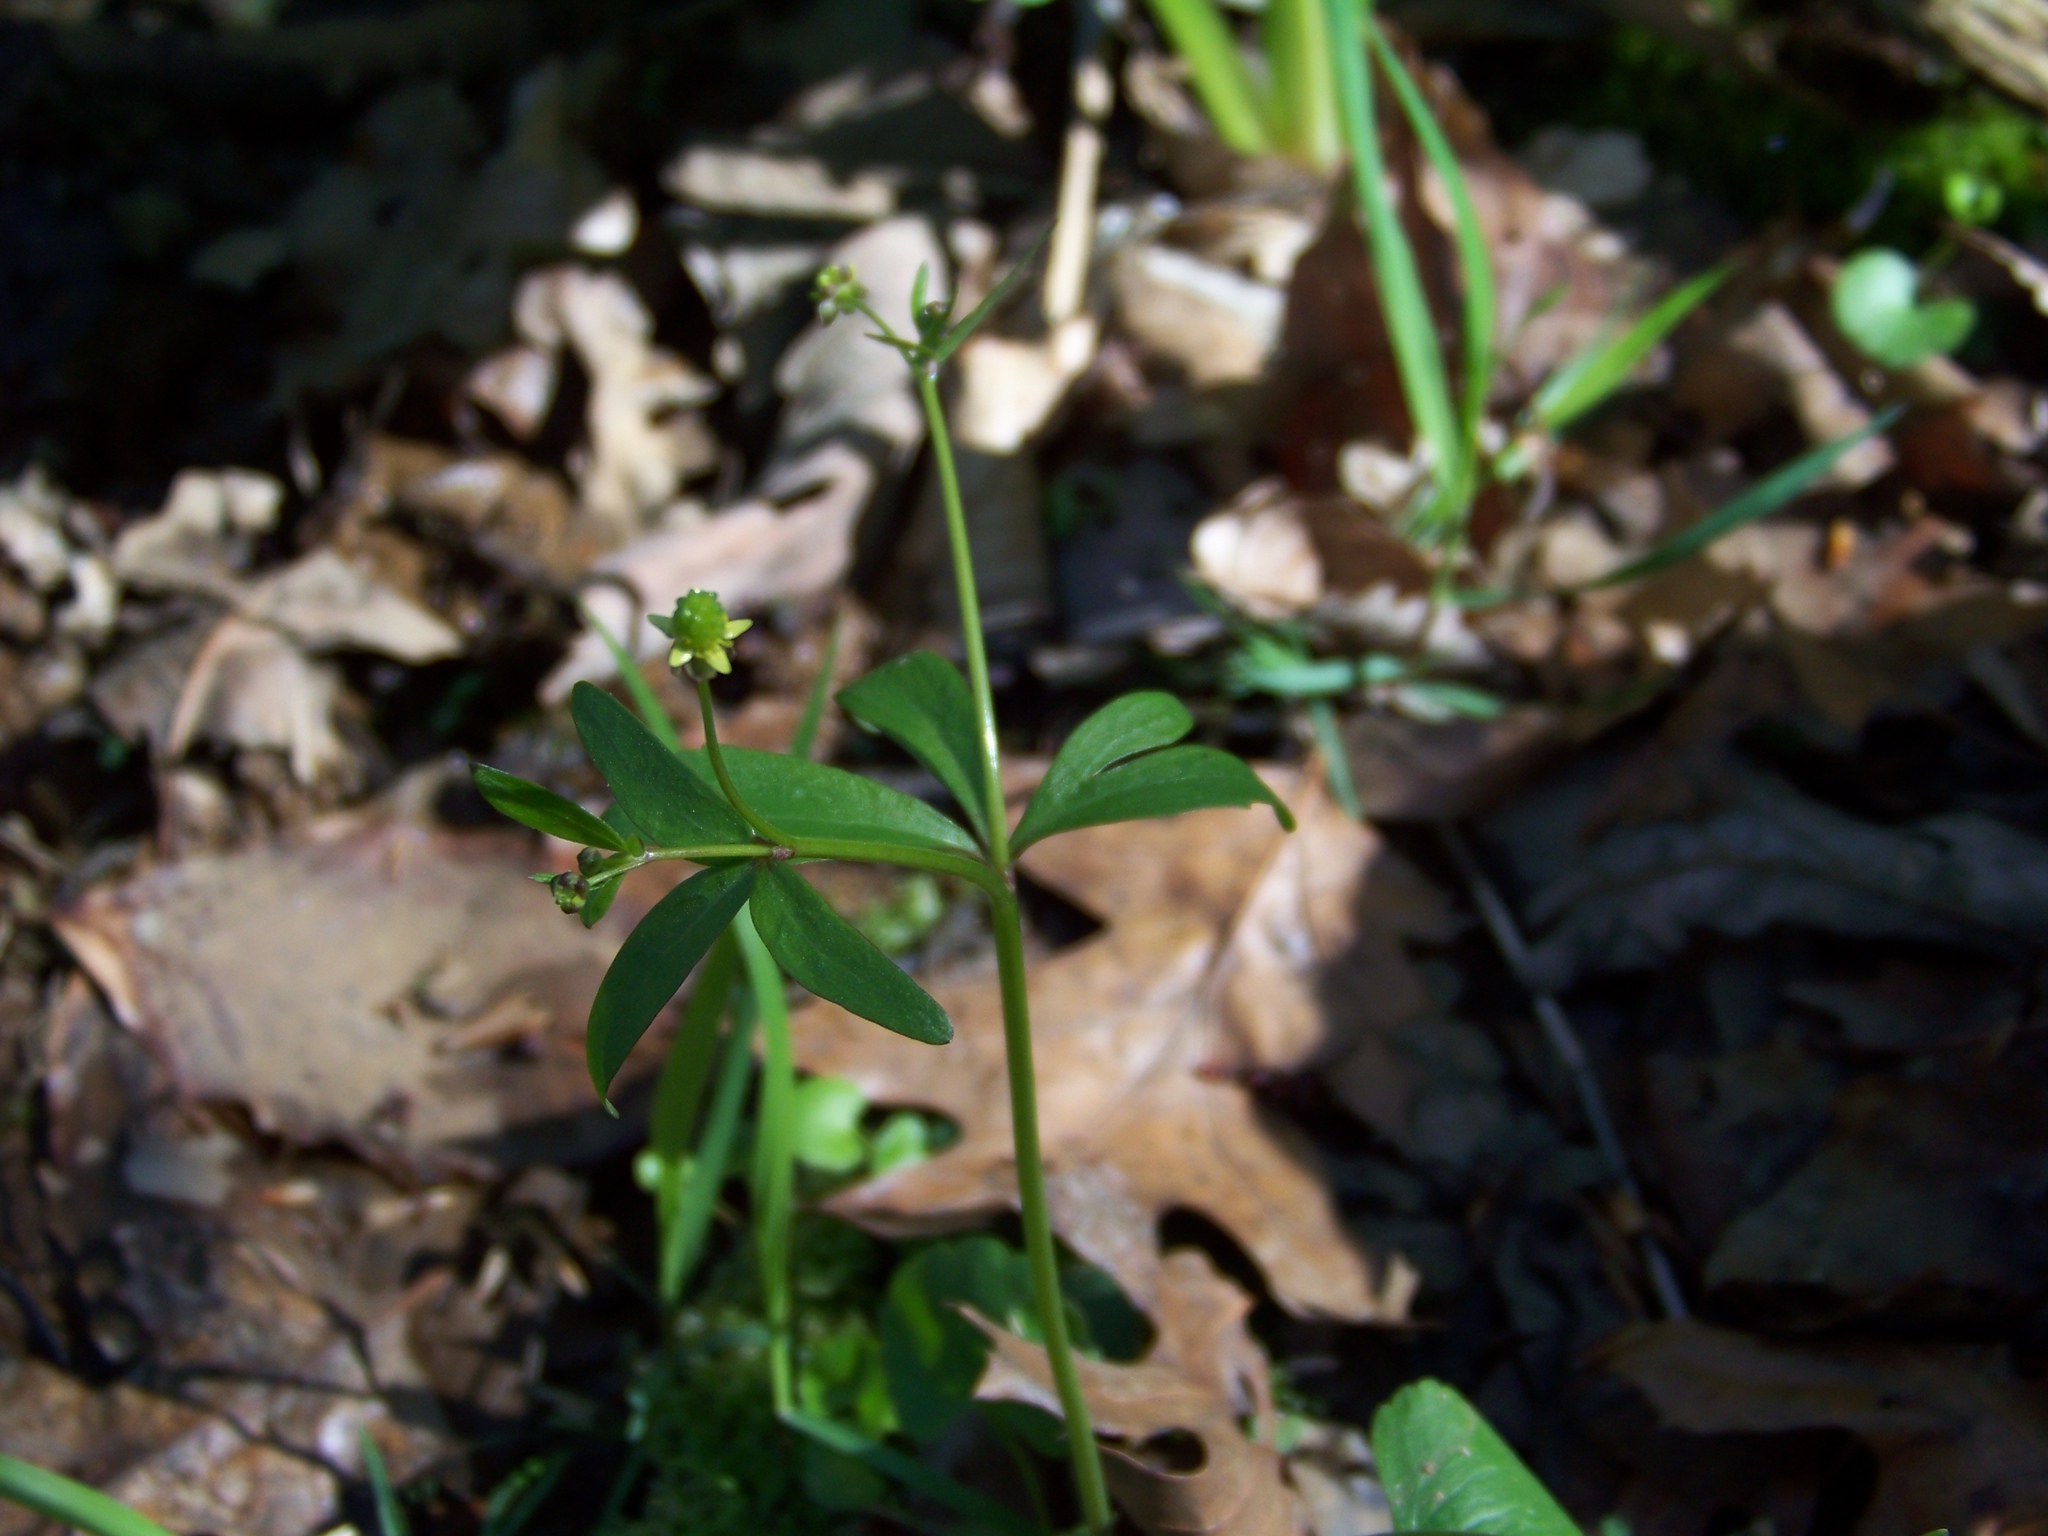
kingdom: Plantae
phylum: Tracheophyta
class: Magnoliopsida
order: Ranunculales
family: Ranunculaceae
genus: Ranunculus
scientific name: Ranunculus abortivus
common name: Early wood buttercup
